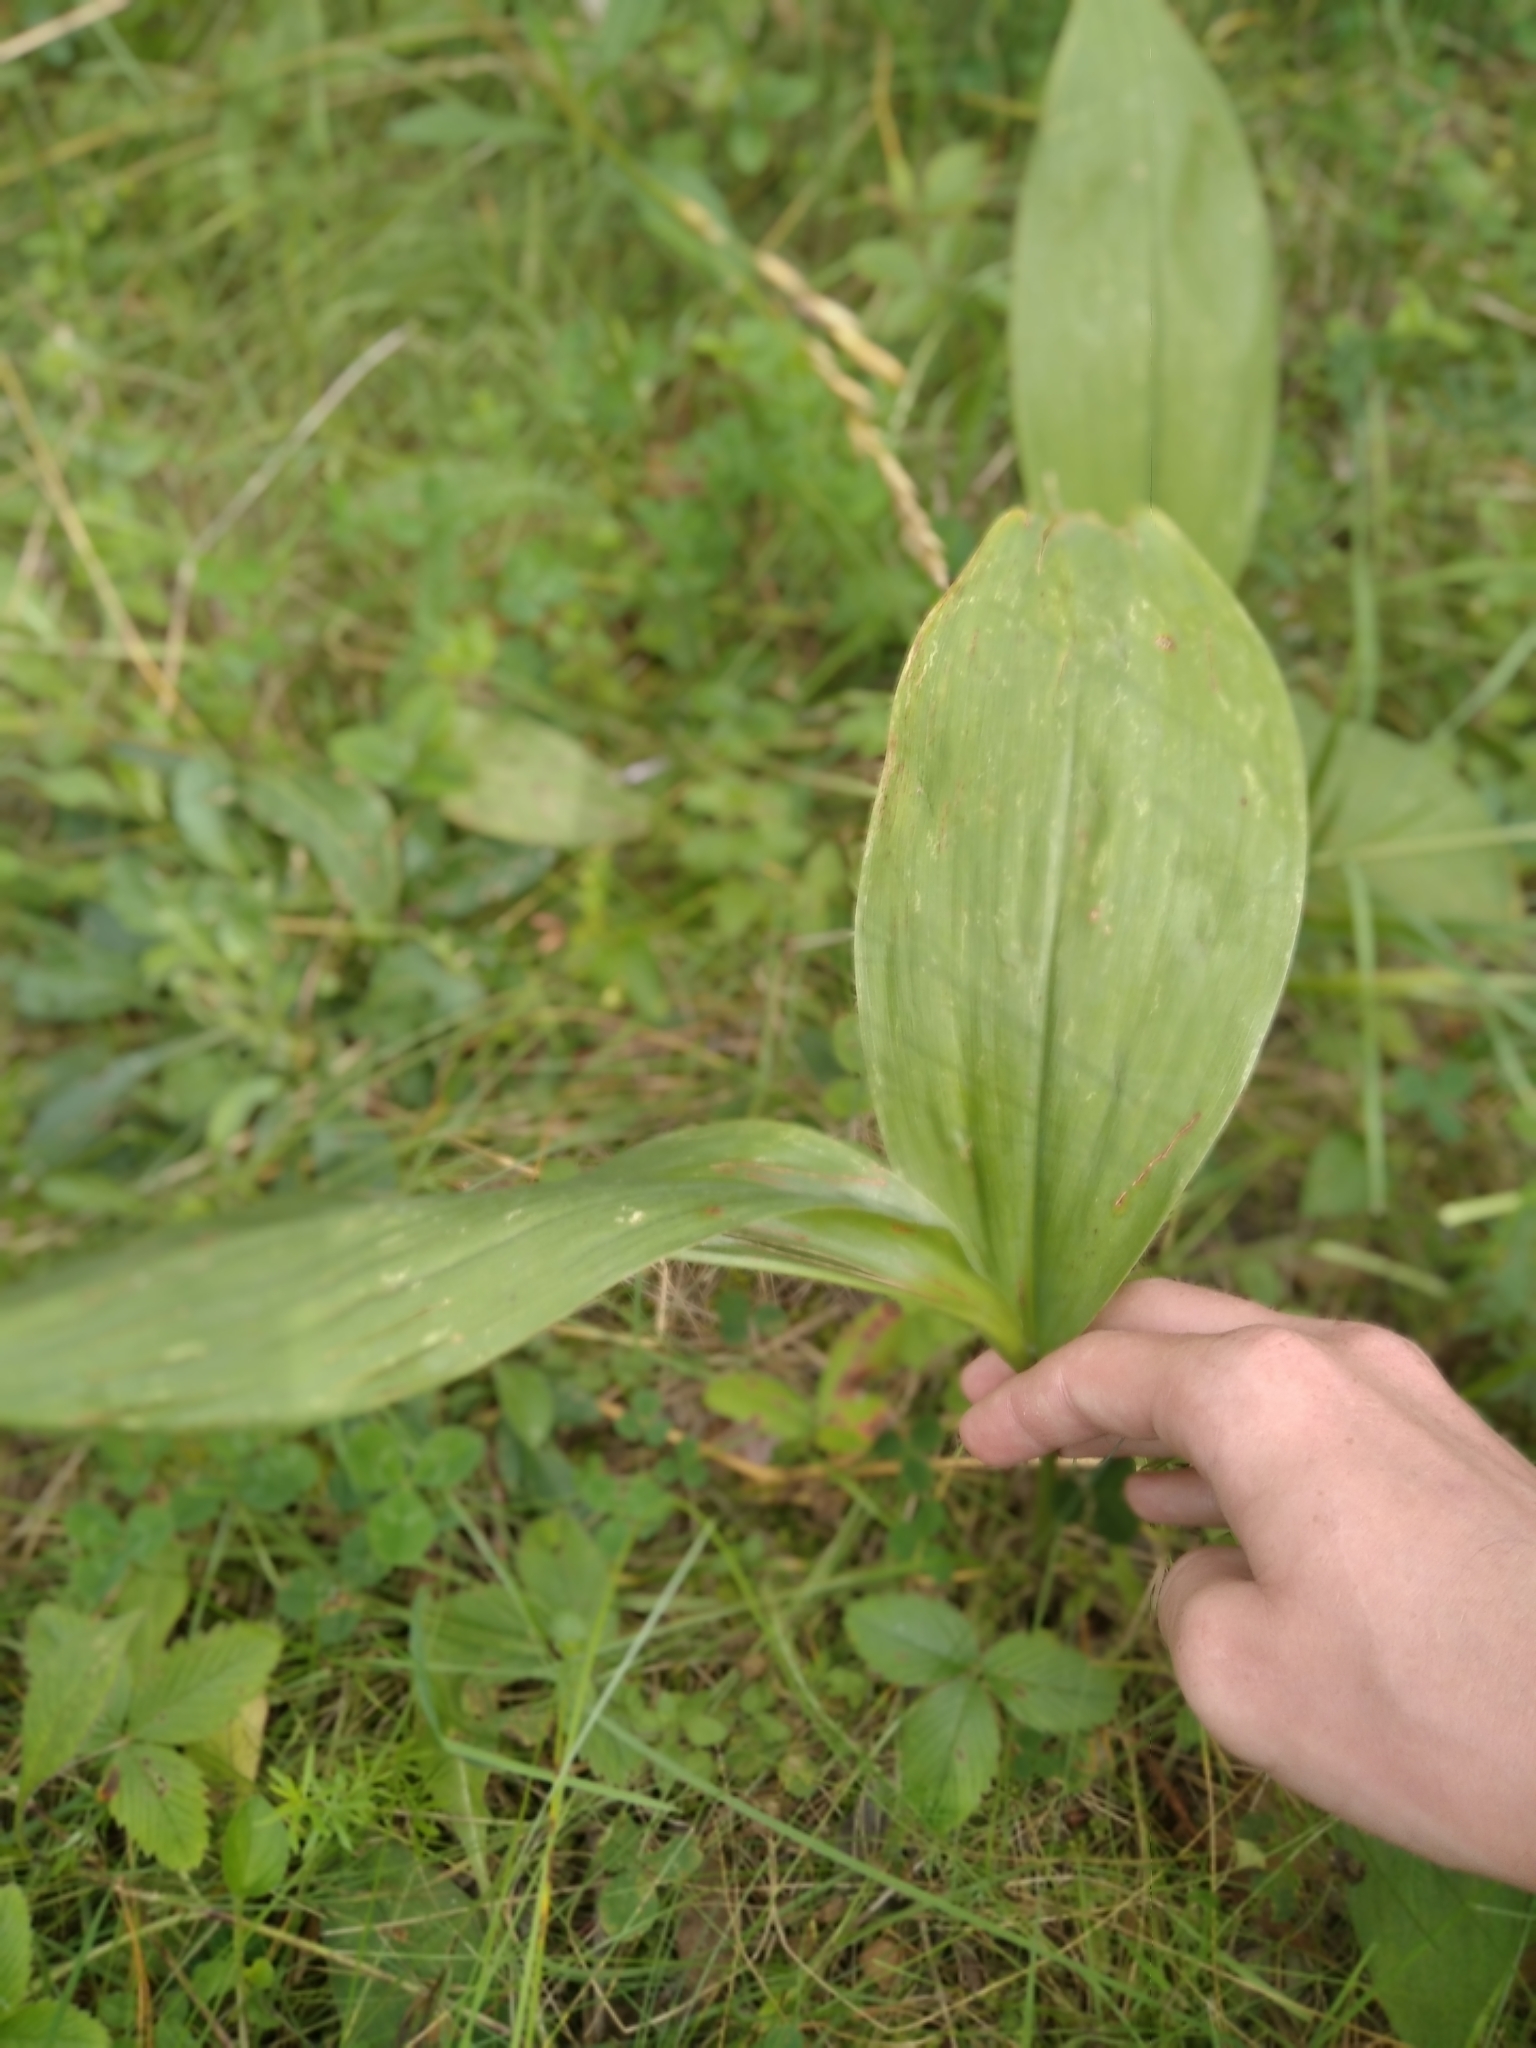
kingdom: Plantae
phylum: Tracheophyta
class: Liliopsida
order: Asparagales
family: Asparagaceae
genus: Convallaria
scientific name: Convallaria majalis
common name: Lily-of-the-valley
